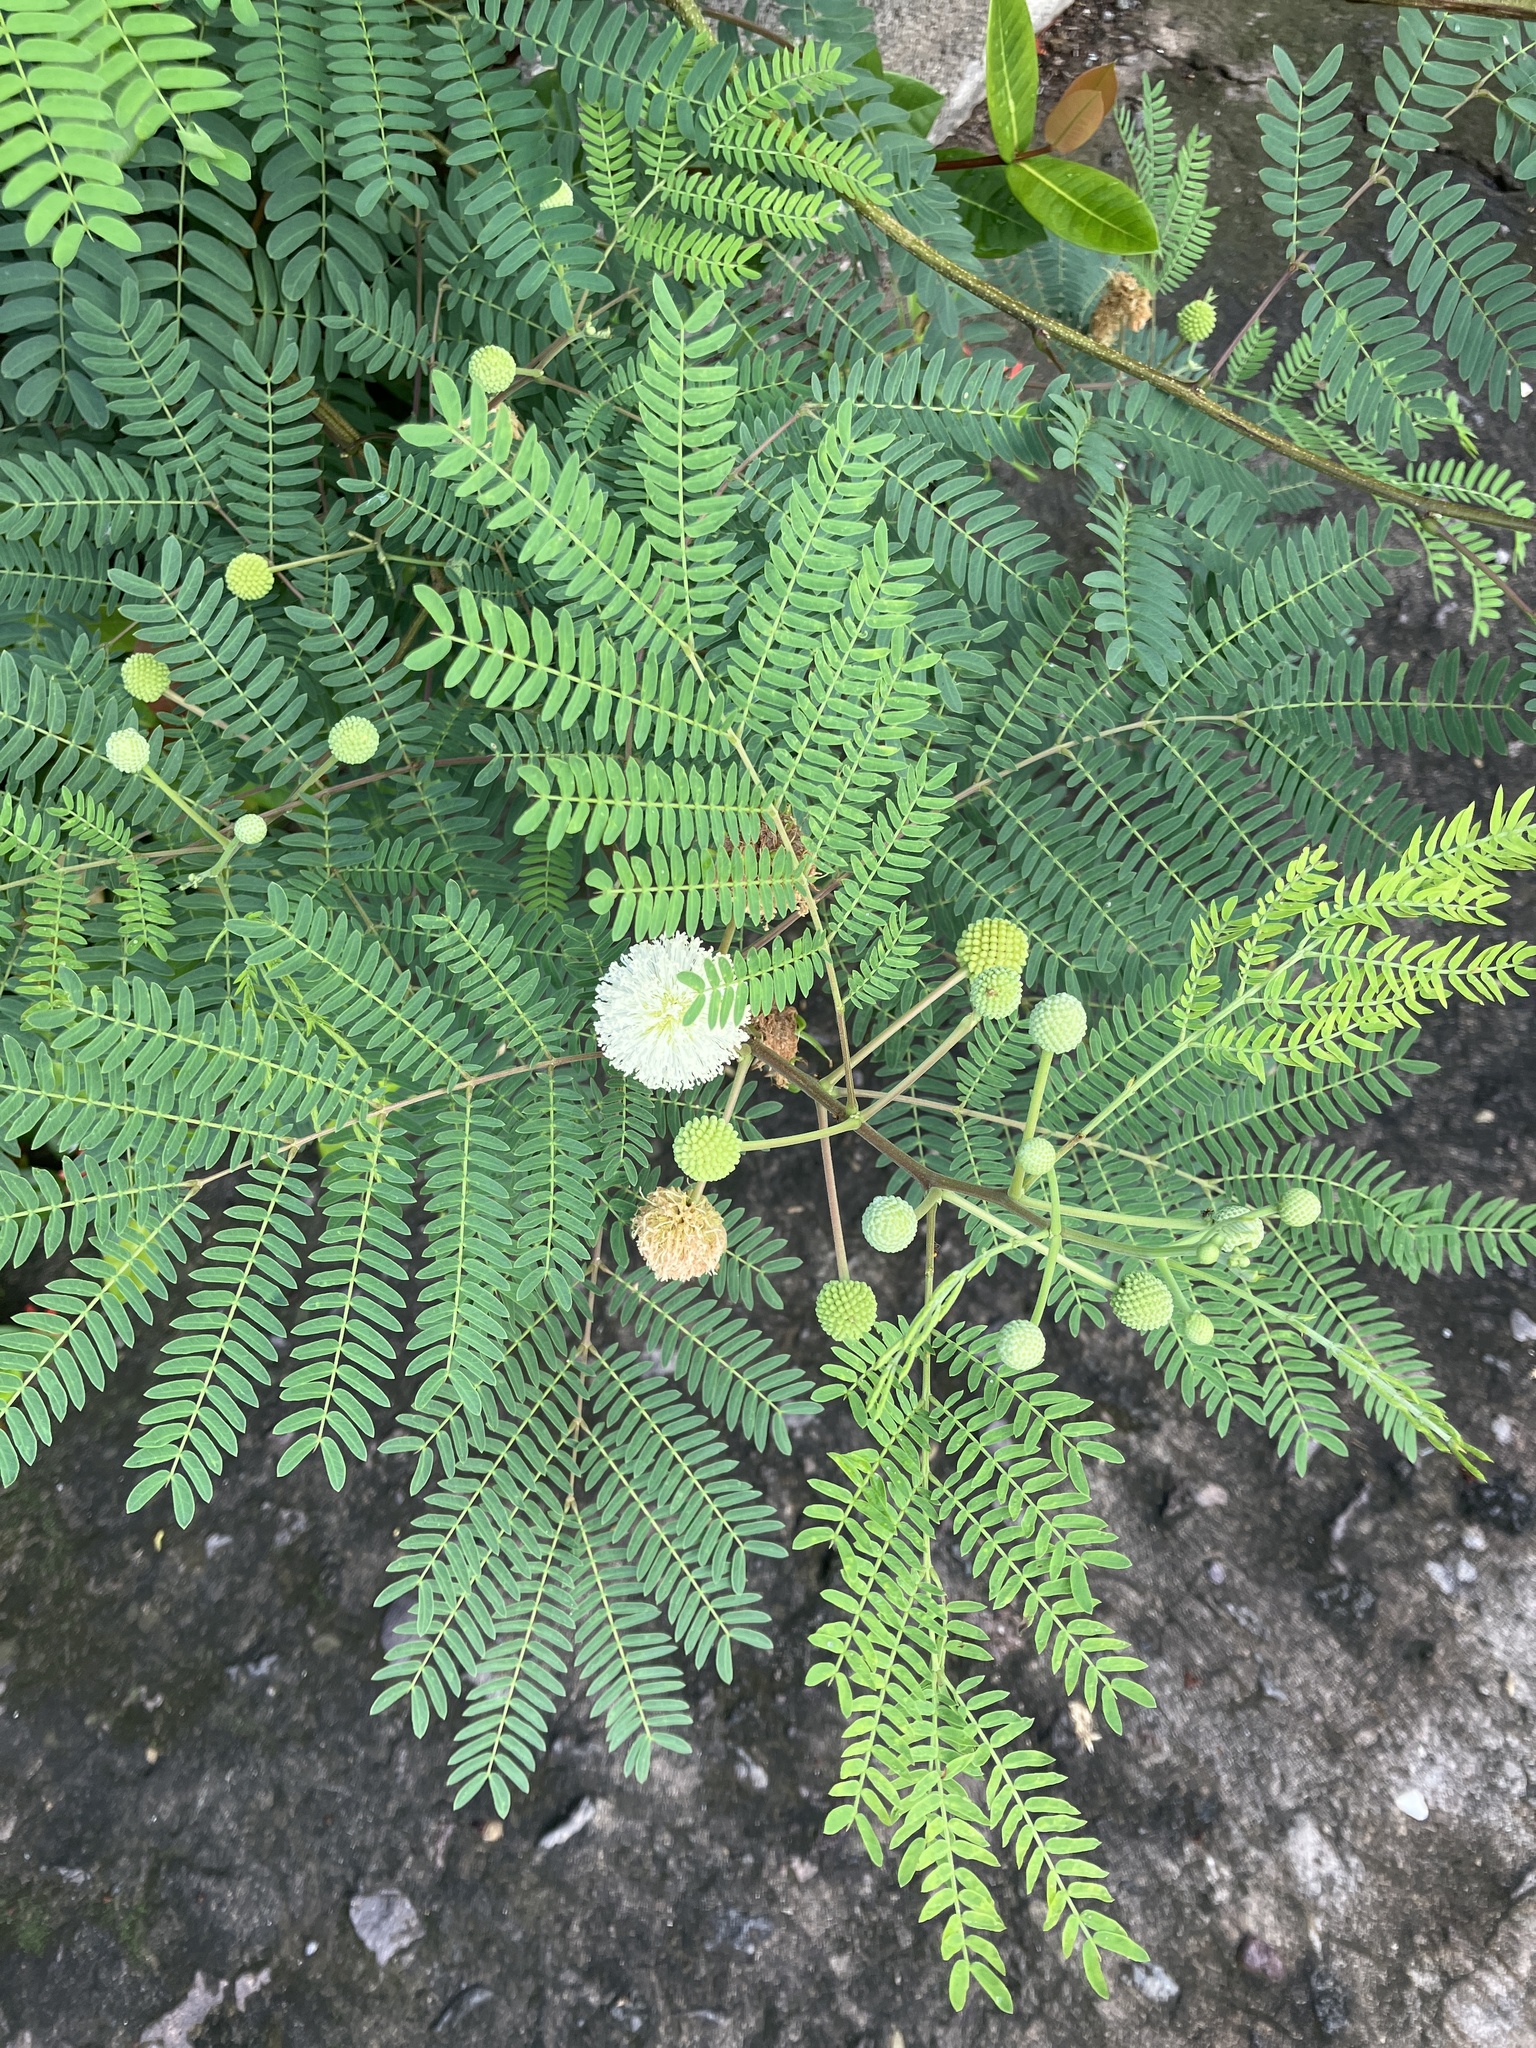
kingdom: Plantae
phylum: Tracheophyta
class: Magnoliopsida
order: Fabales
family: Fabaceae
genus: Leucaena
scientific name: Leucaena leucocephala
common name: White leadtree
